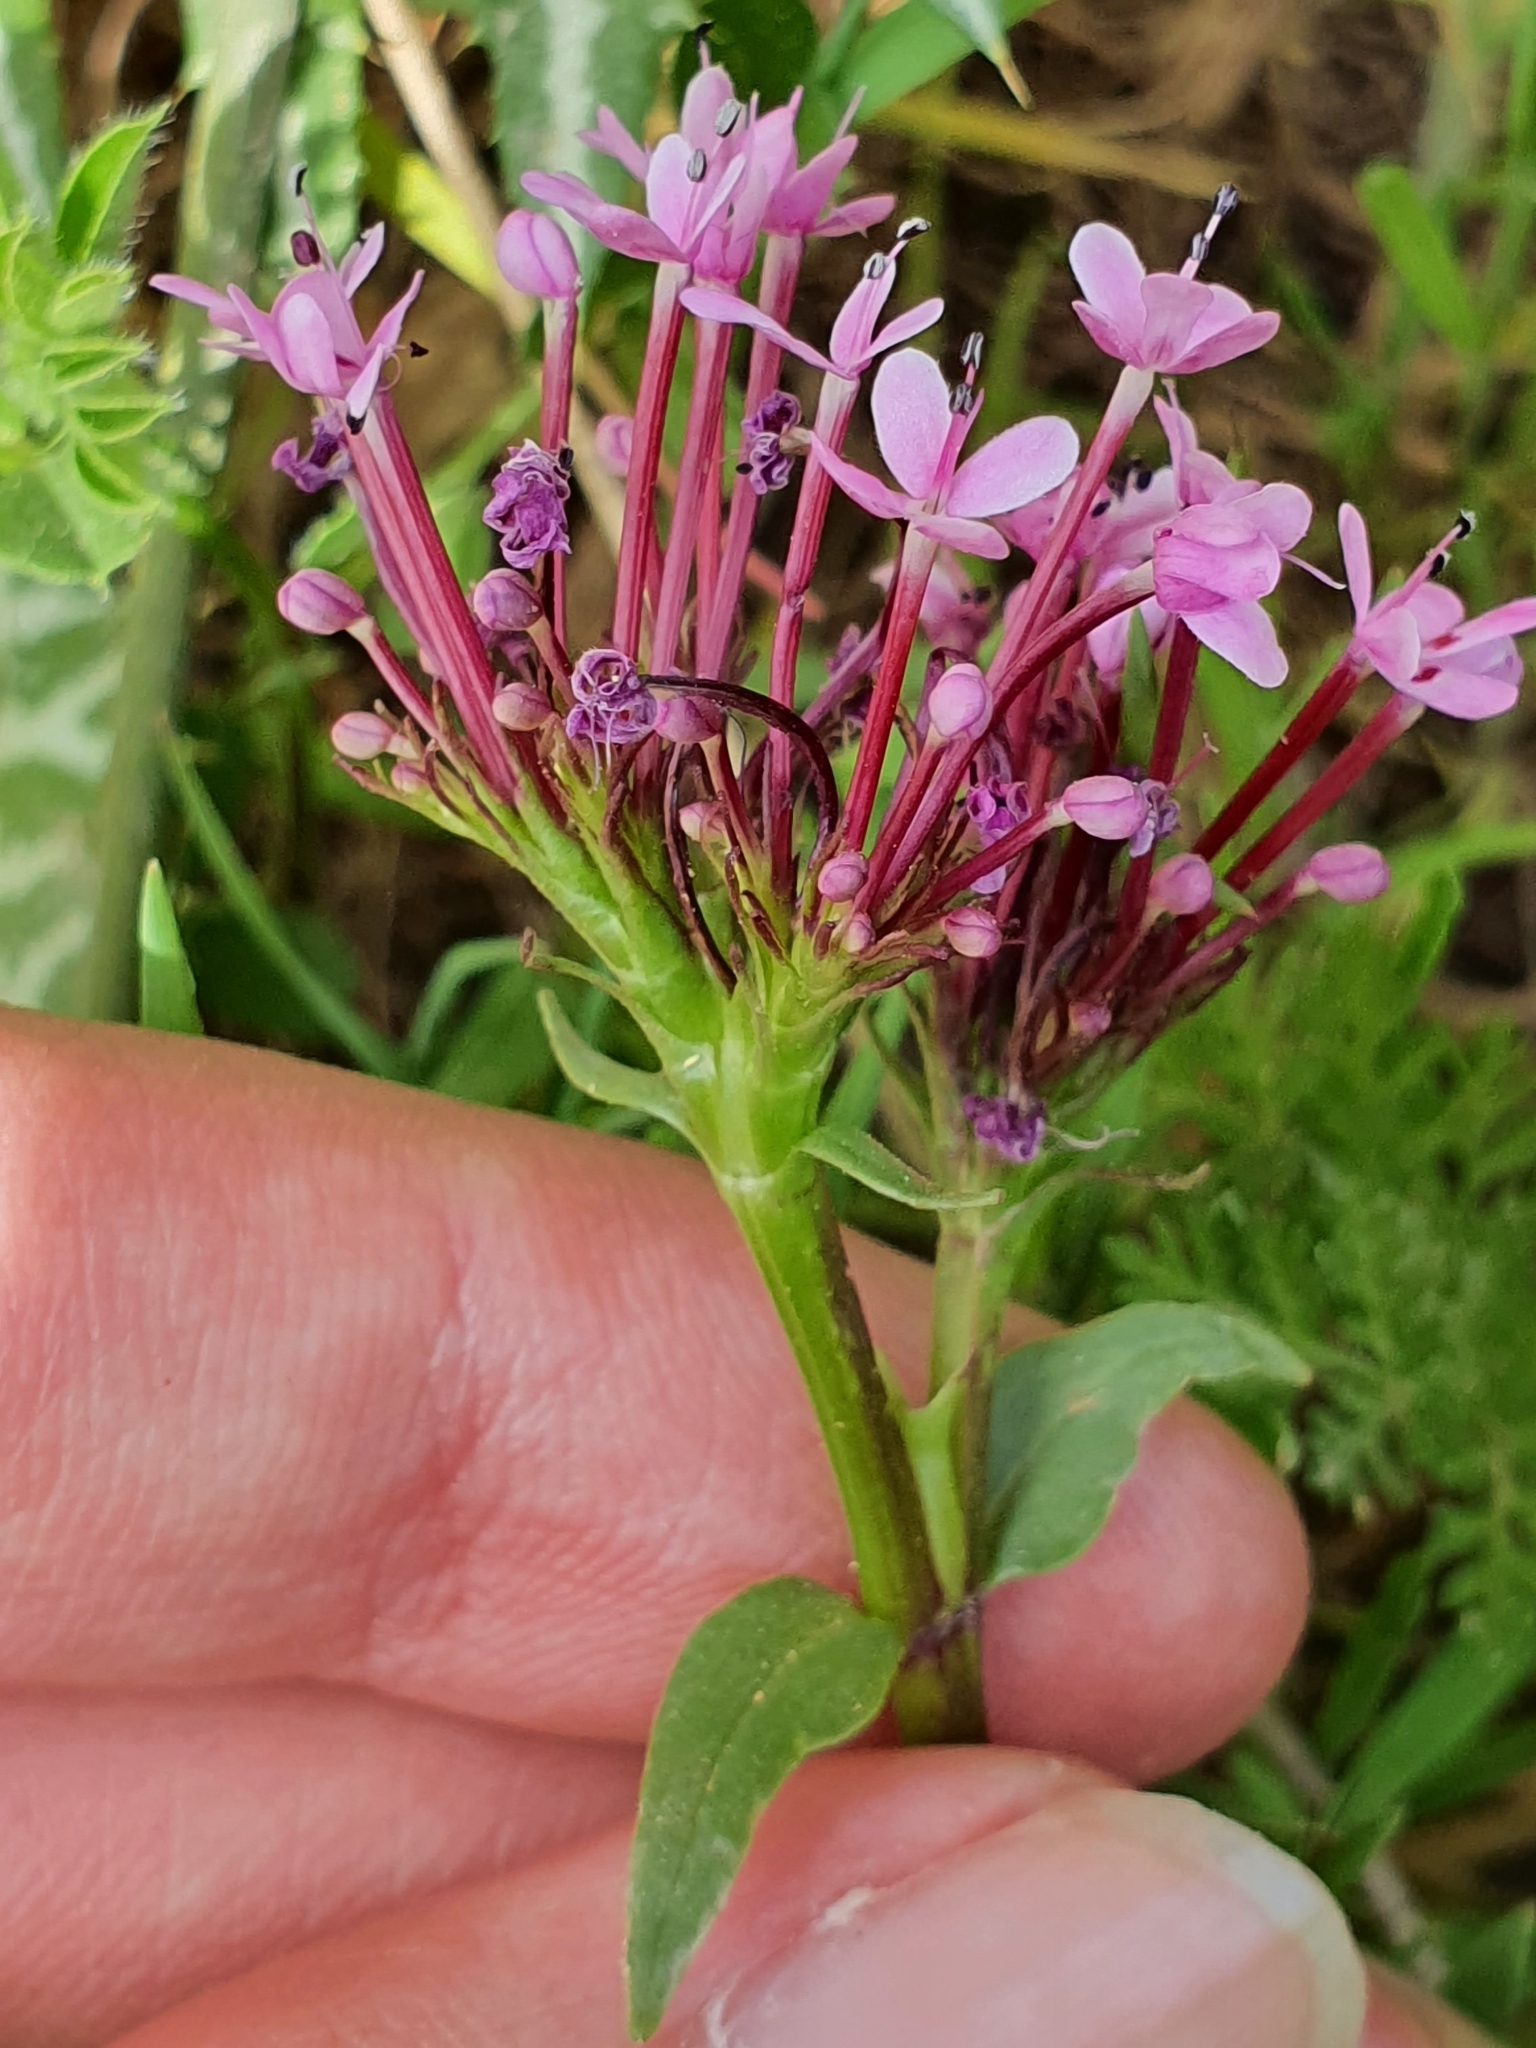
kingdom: Plantae
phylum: Tracheophyta
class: Magnoliopsida
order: Dipsacales
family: Caprifoliaceae
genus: Fedia
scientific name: Fedia graciliflora
